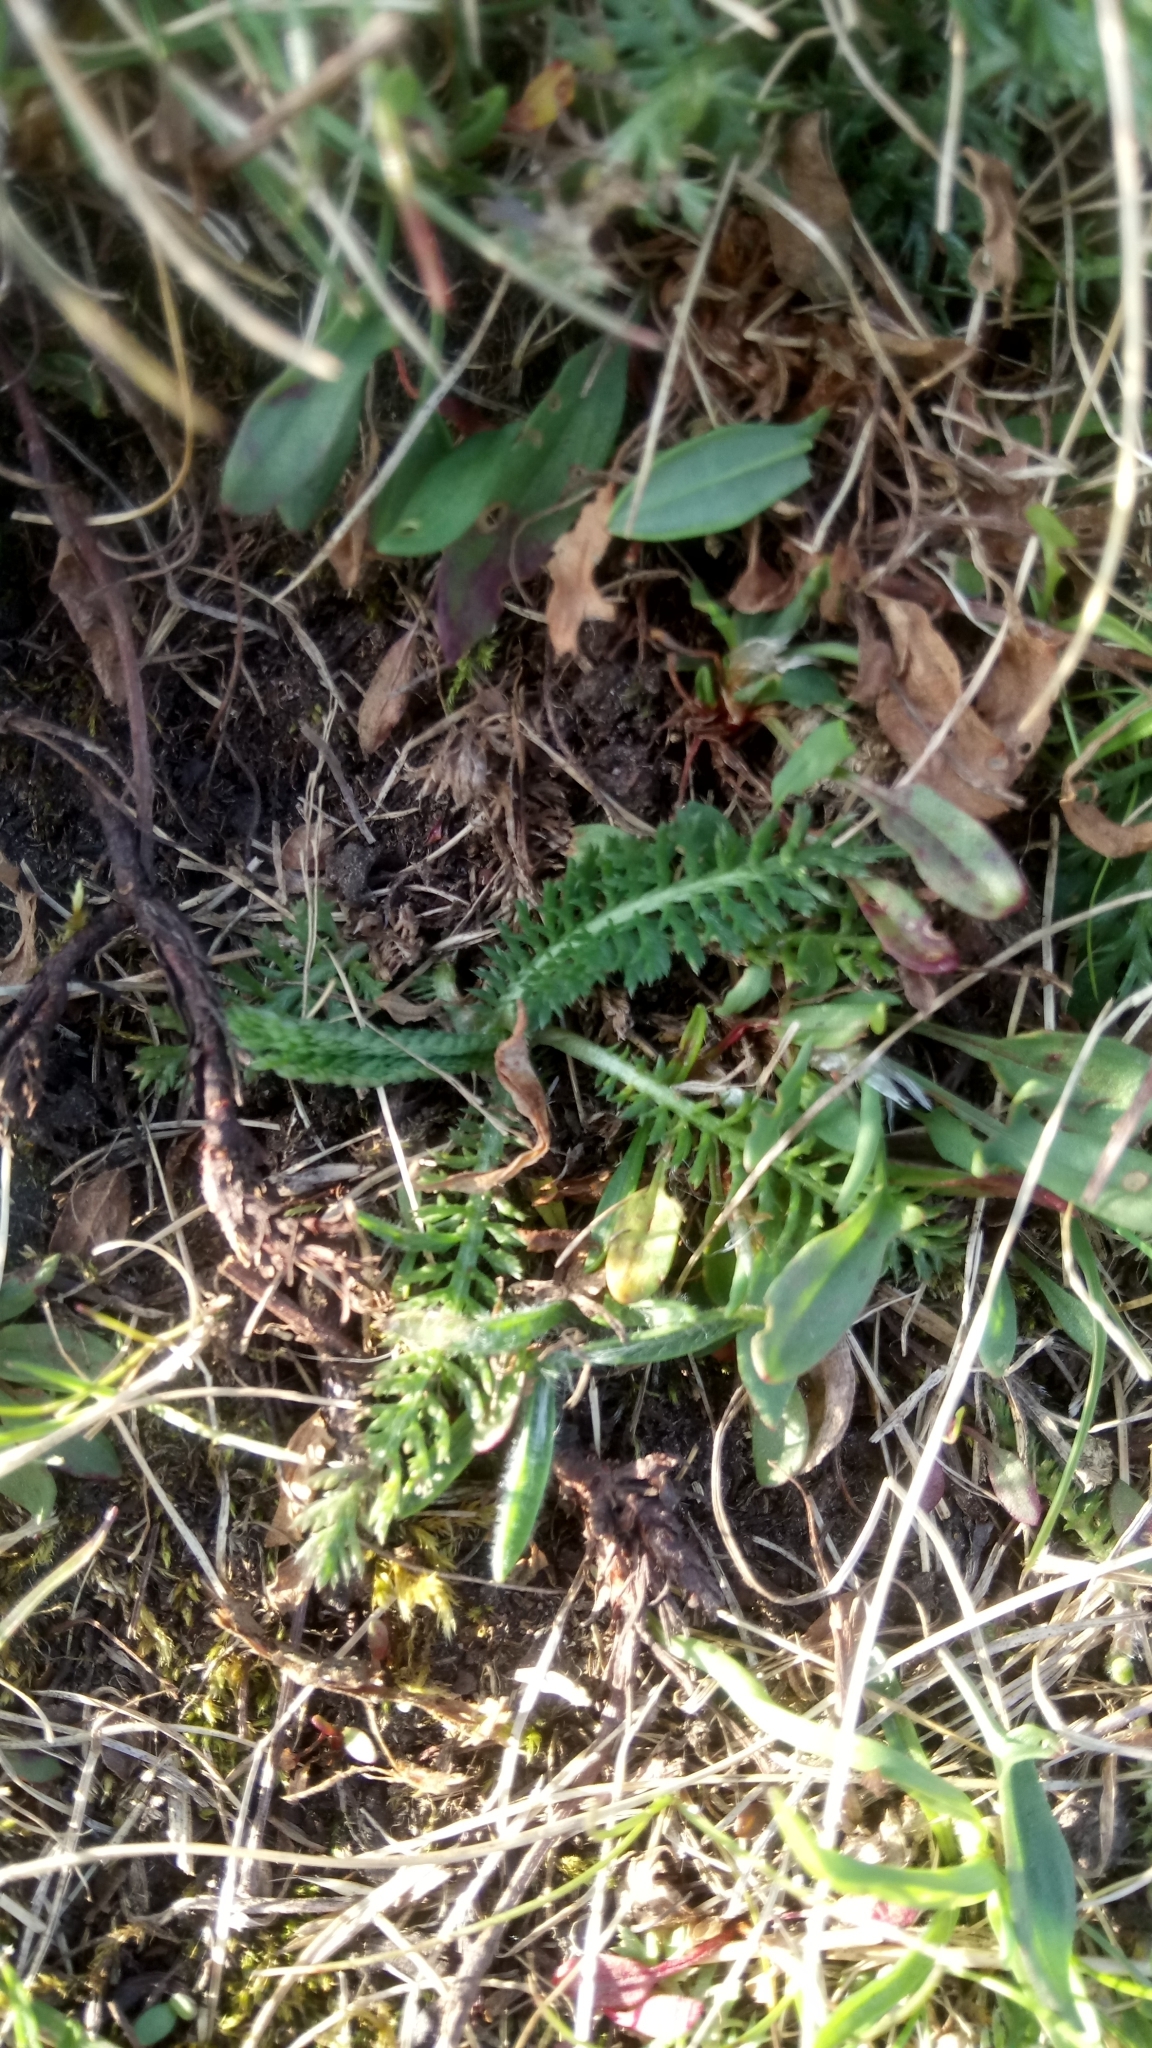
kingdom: Plantae
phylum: Tracheophyta
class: Magnoliopsida
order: Asterales
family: Asteraceae
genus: Achillea
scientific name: Achillea millefolium
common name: Yarrow
